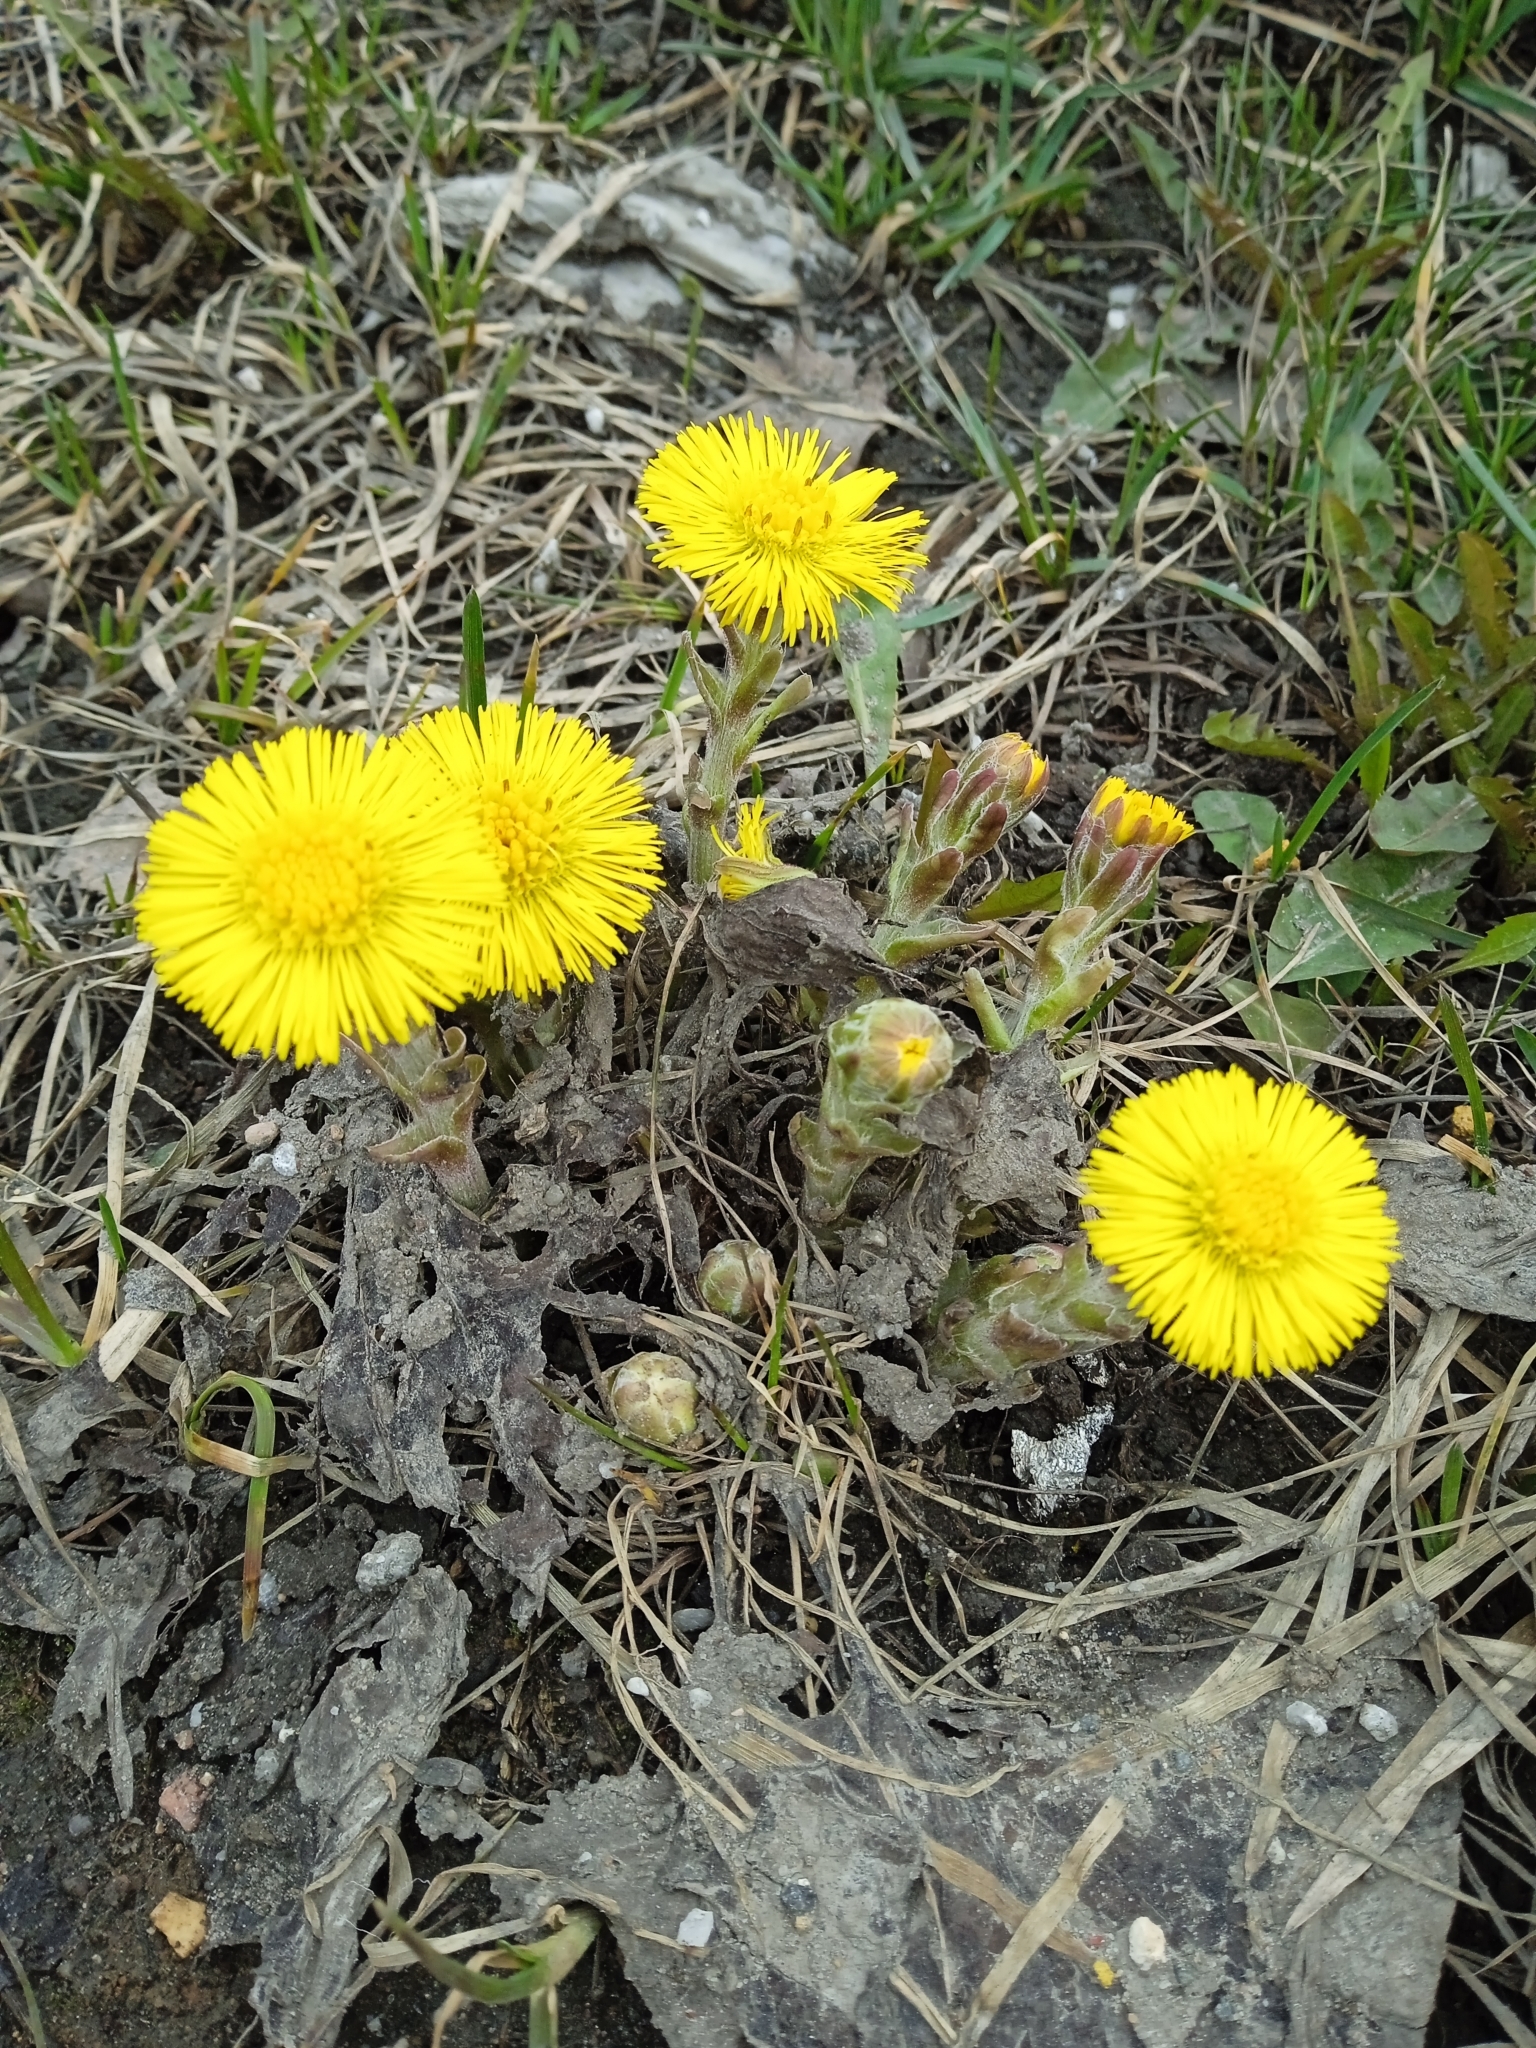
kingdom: Plantae
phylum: Tracheophyta
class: Magnoliopsida
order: Asterales
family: Asteraceae
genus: Tussilago
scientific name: Tussilago farfara
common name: Coltsfoot
